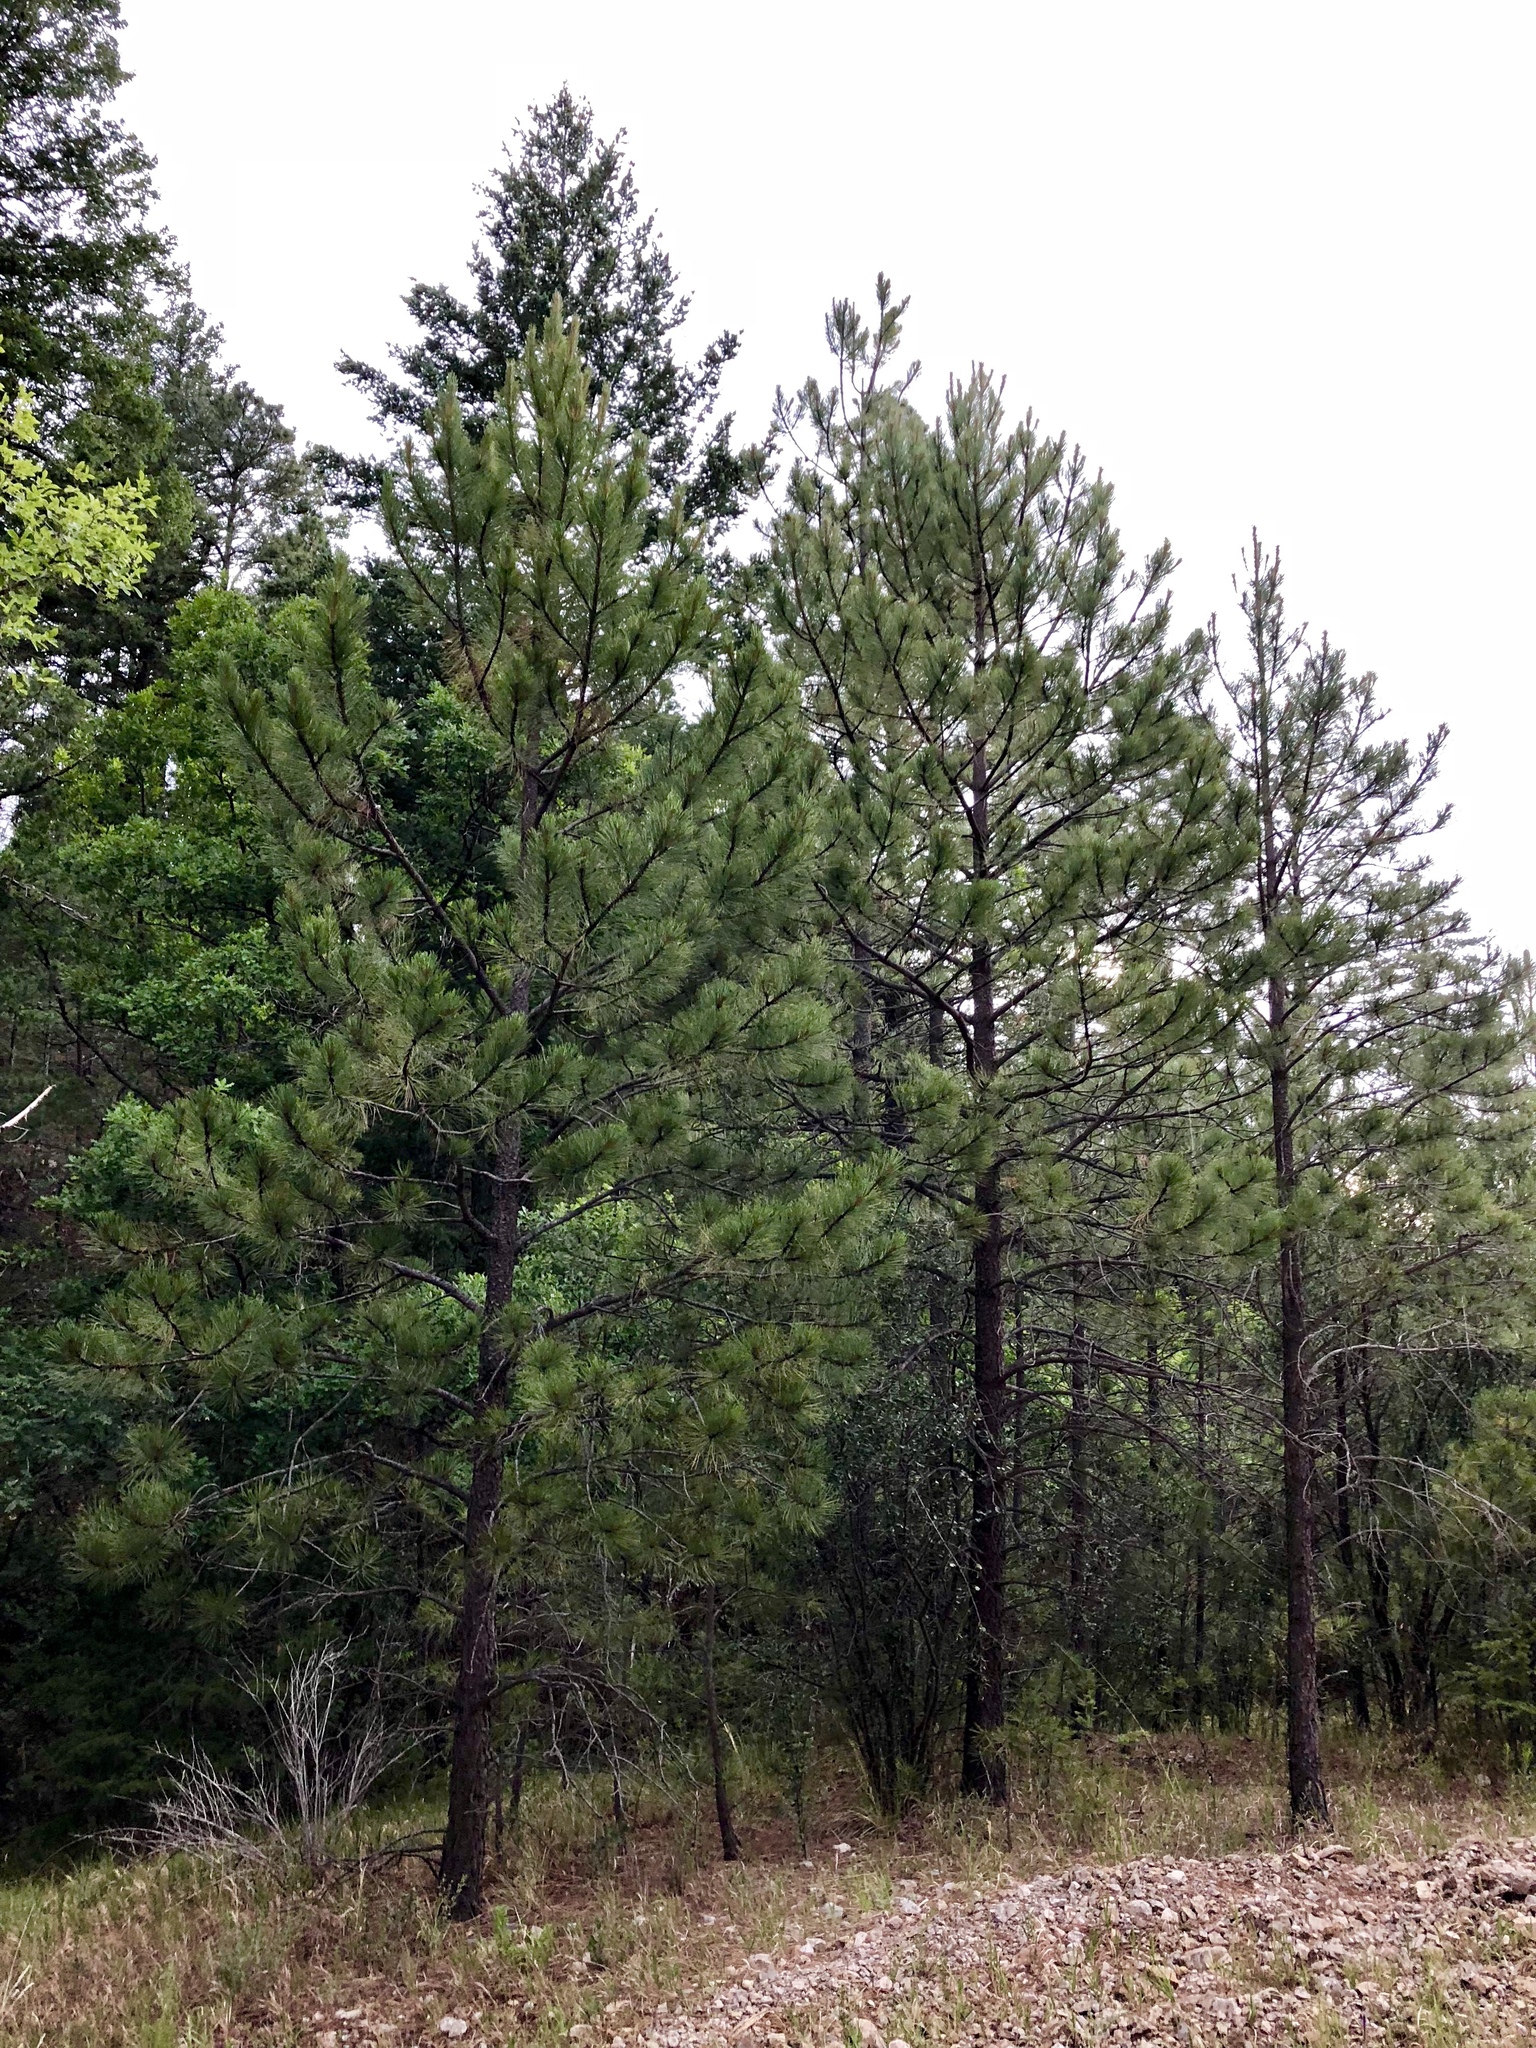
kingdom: Plantae
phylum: Tracheophyta
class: Pinopsida
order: Pinales
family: Pinaceae
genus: Pinus
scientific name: Pinus ponderosa
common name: Western yellow-pine
